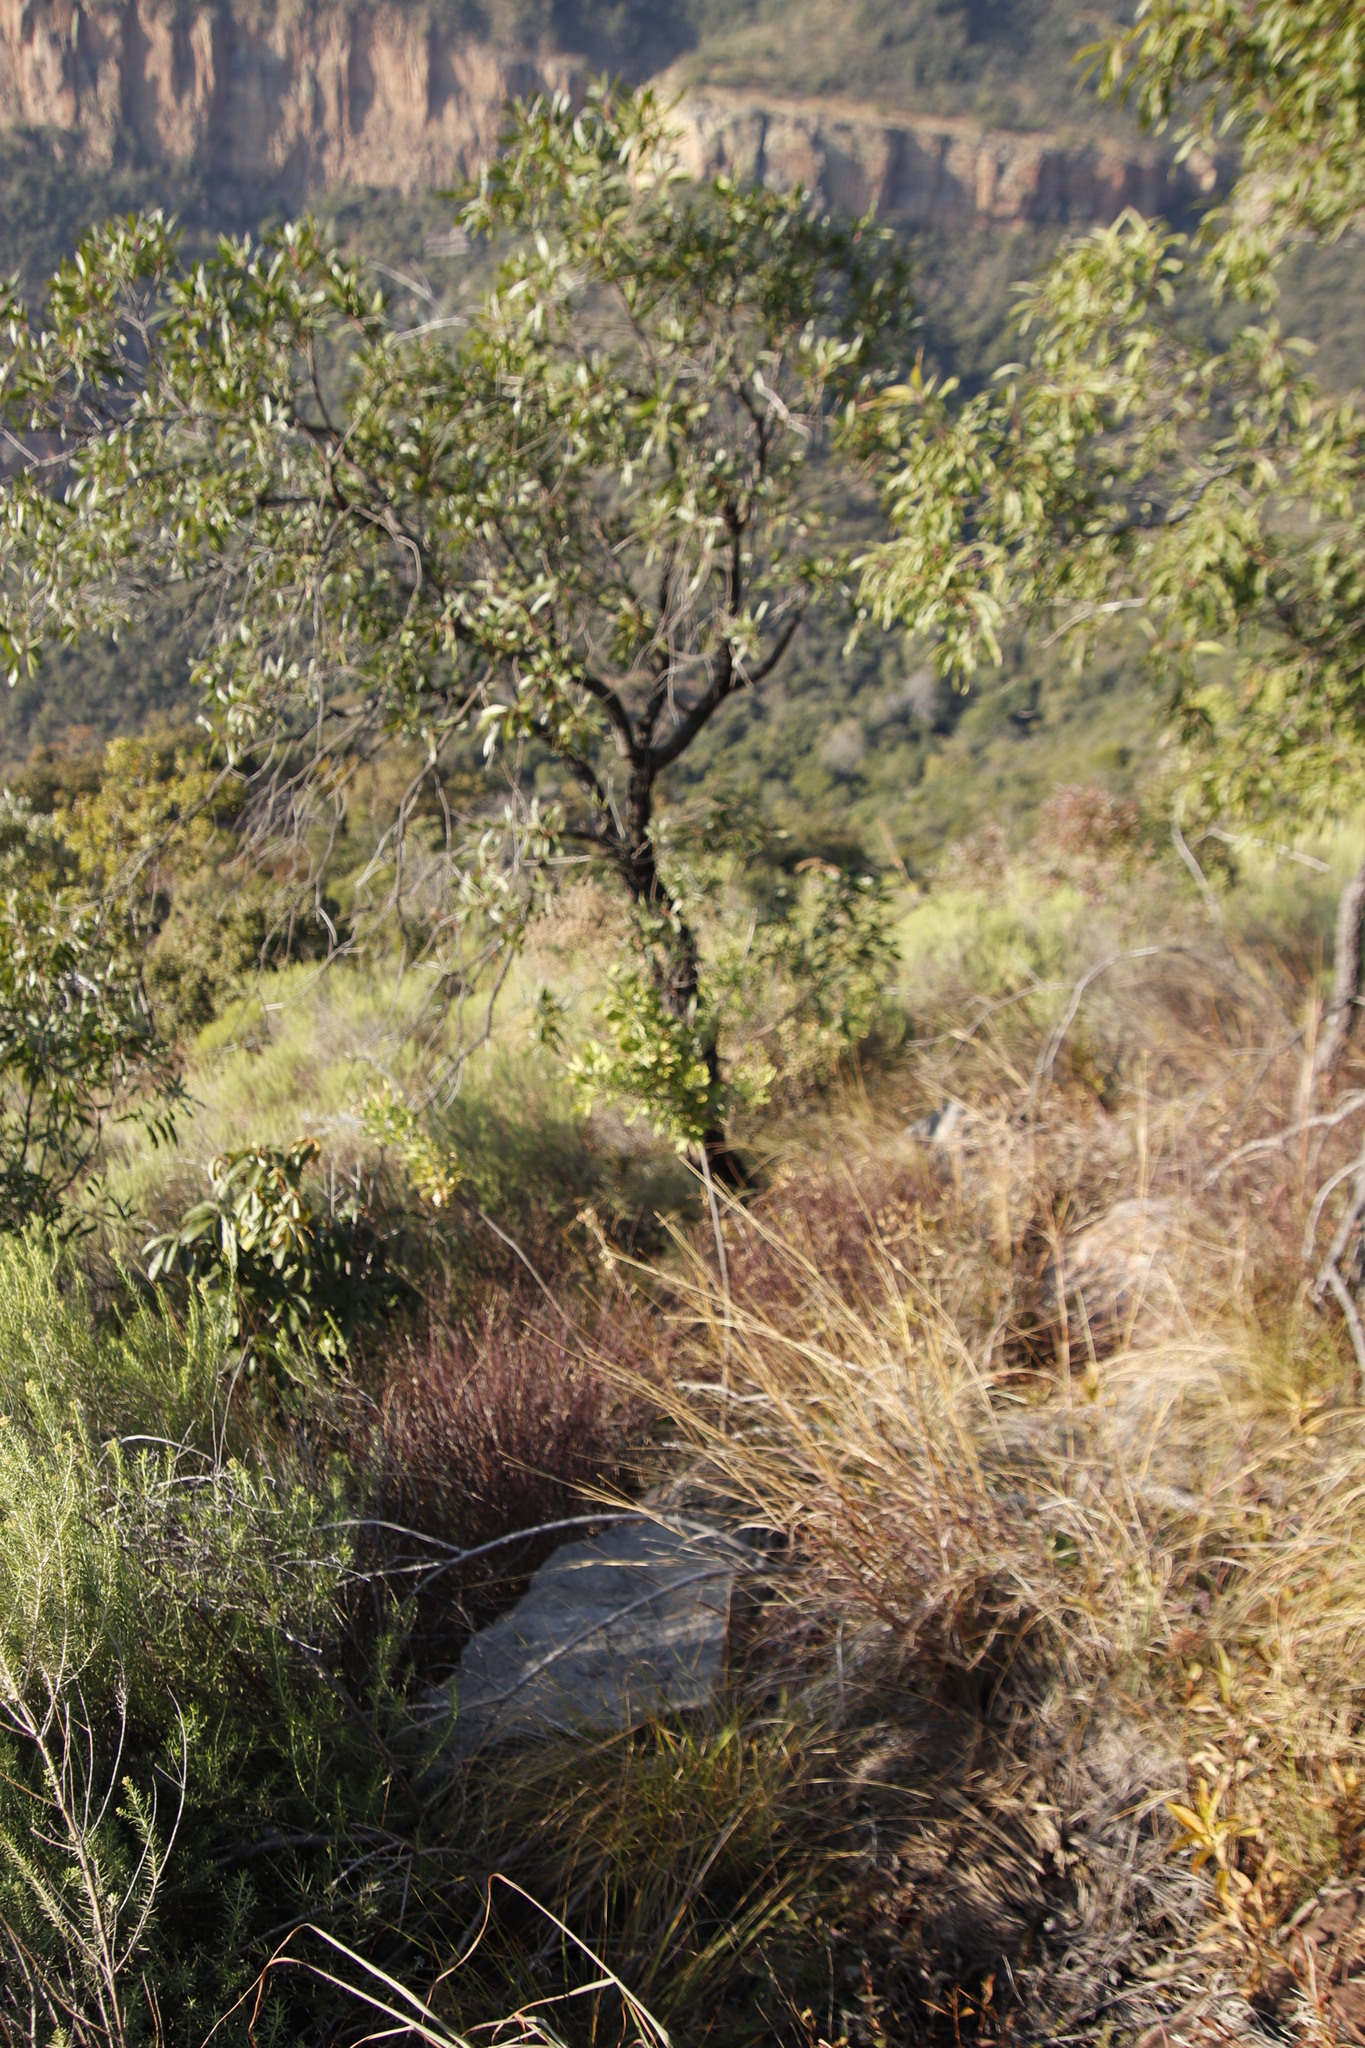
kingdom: Plantae
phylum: Tracheophyta
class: Magnoliopsida
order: Proteales
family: Proteaceae
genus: Faurea
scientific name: Faurea saligna
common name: African bean
